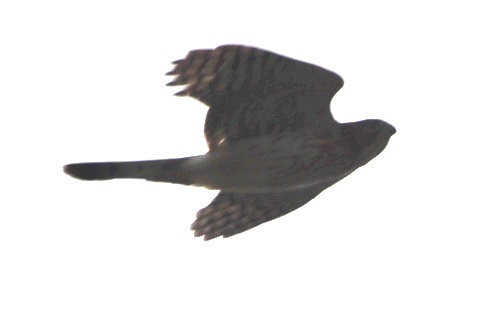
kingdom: Animalia
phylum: Chordata
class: Aves
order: Accipitriformes
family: Accipitridae
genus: Accipiter
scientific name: Accipiter cooperii
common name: Cooper's hawk
